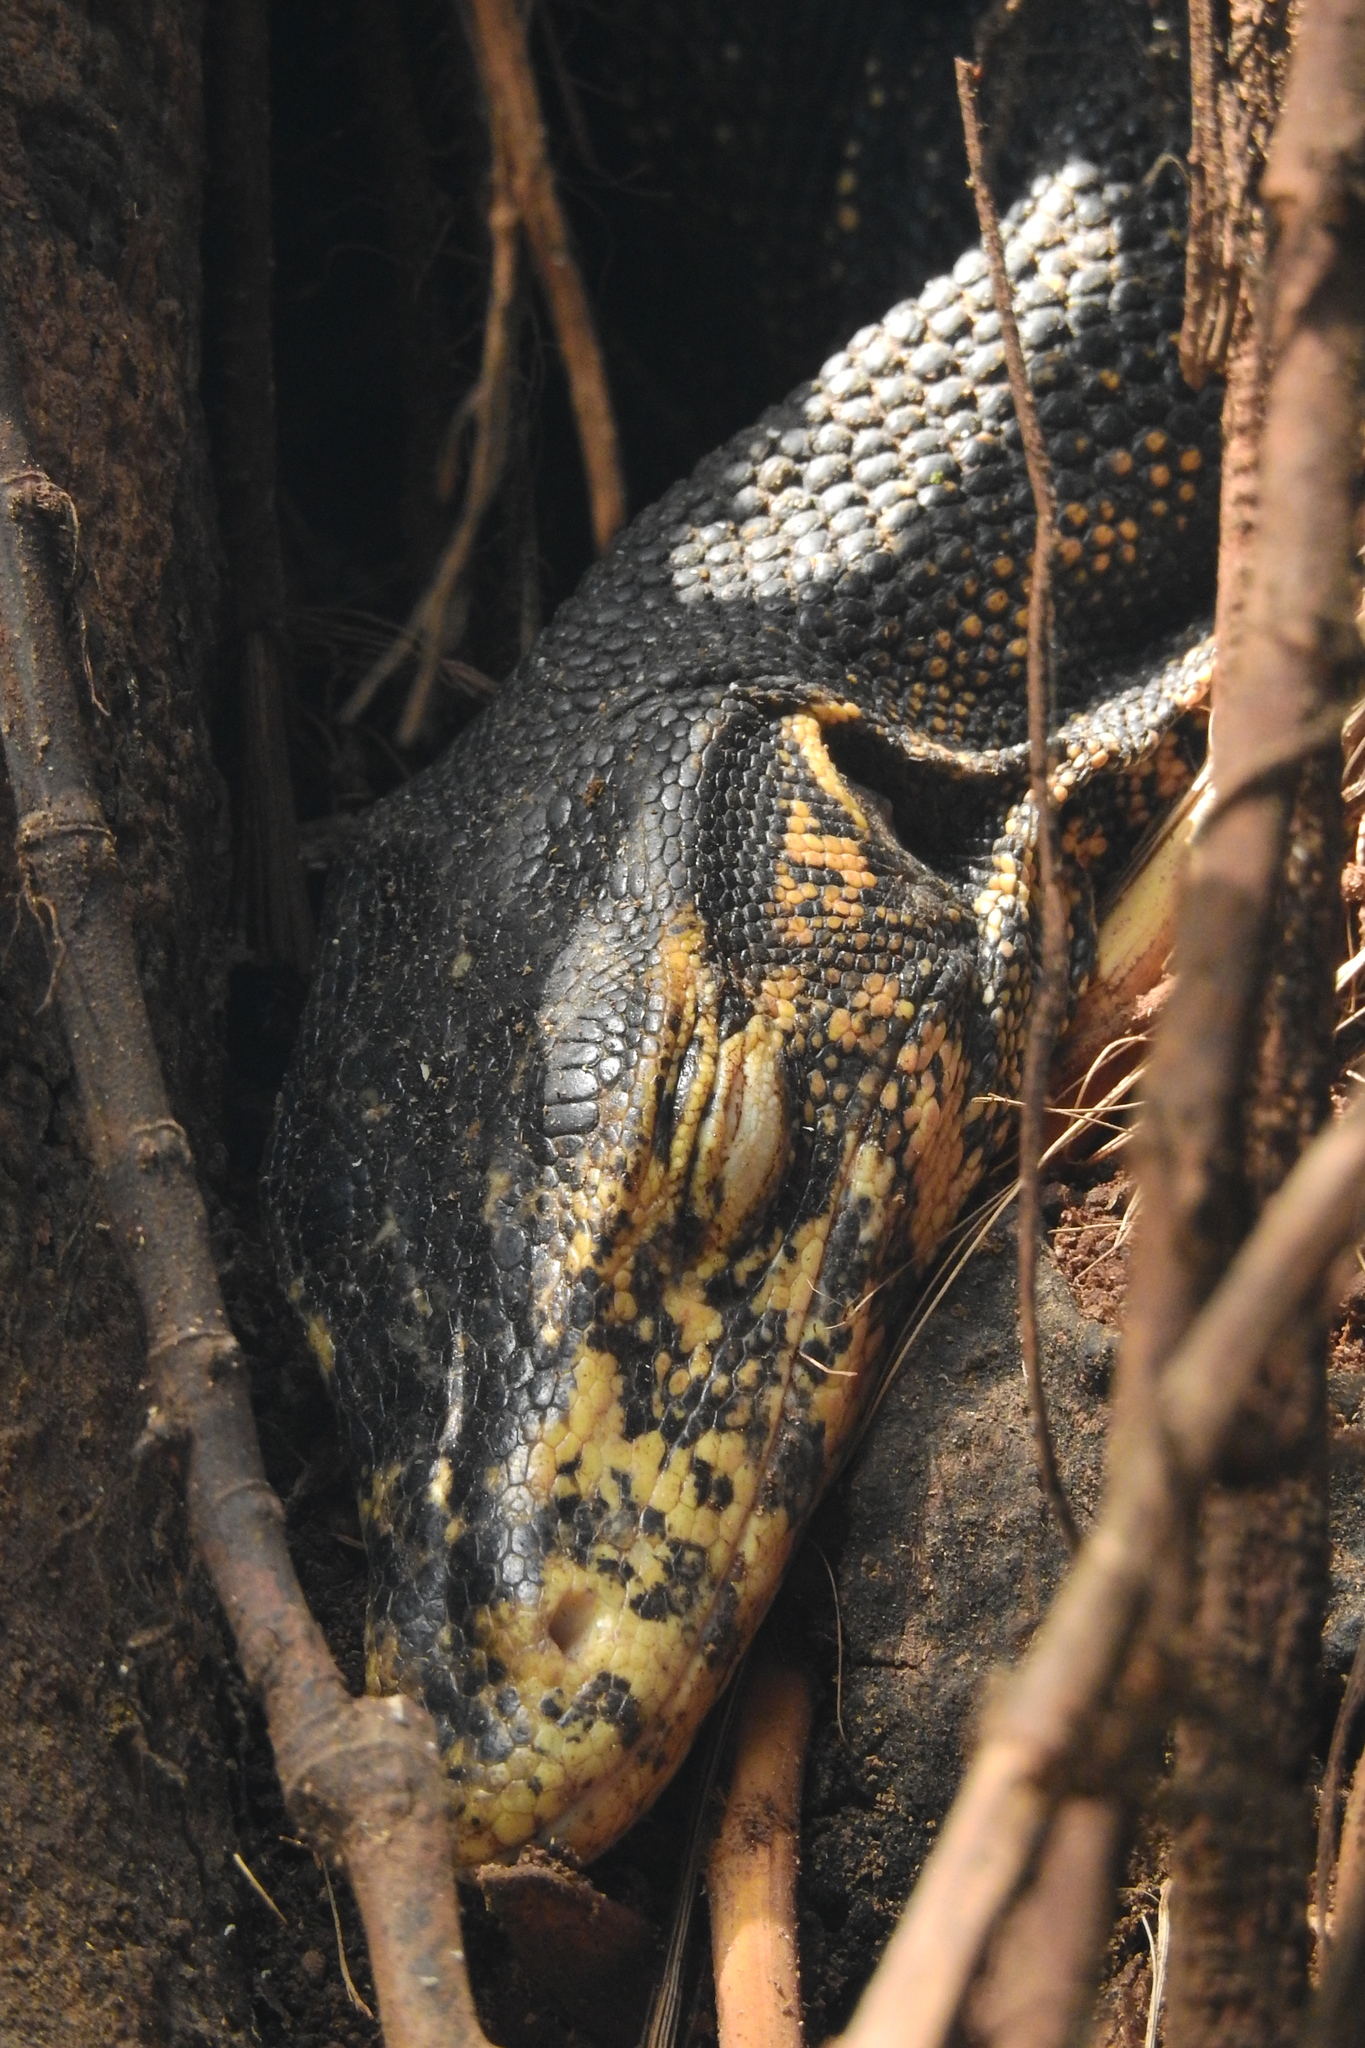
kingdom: Animalia
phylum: Chordata
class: Squamata
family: Varanidae
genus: Varanus
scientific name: Varanus togianus
